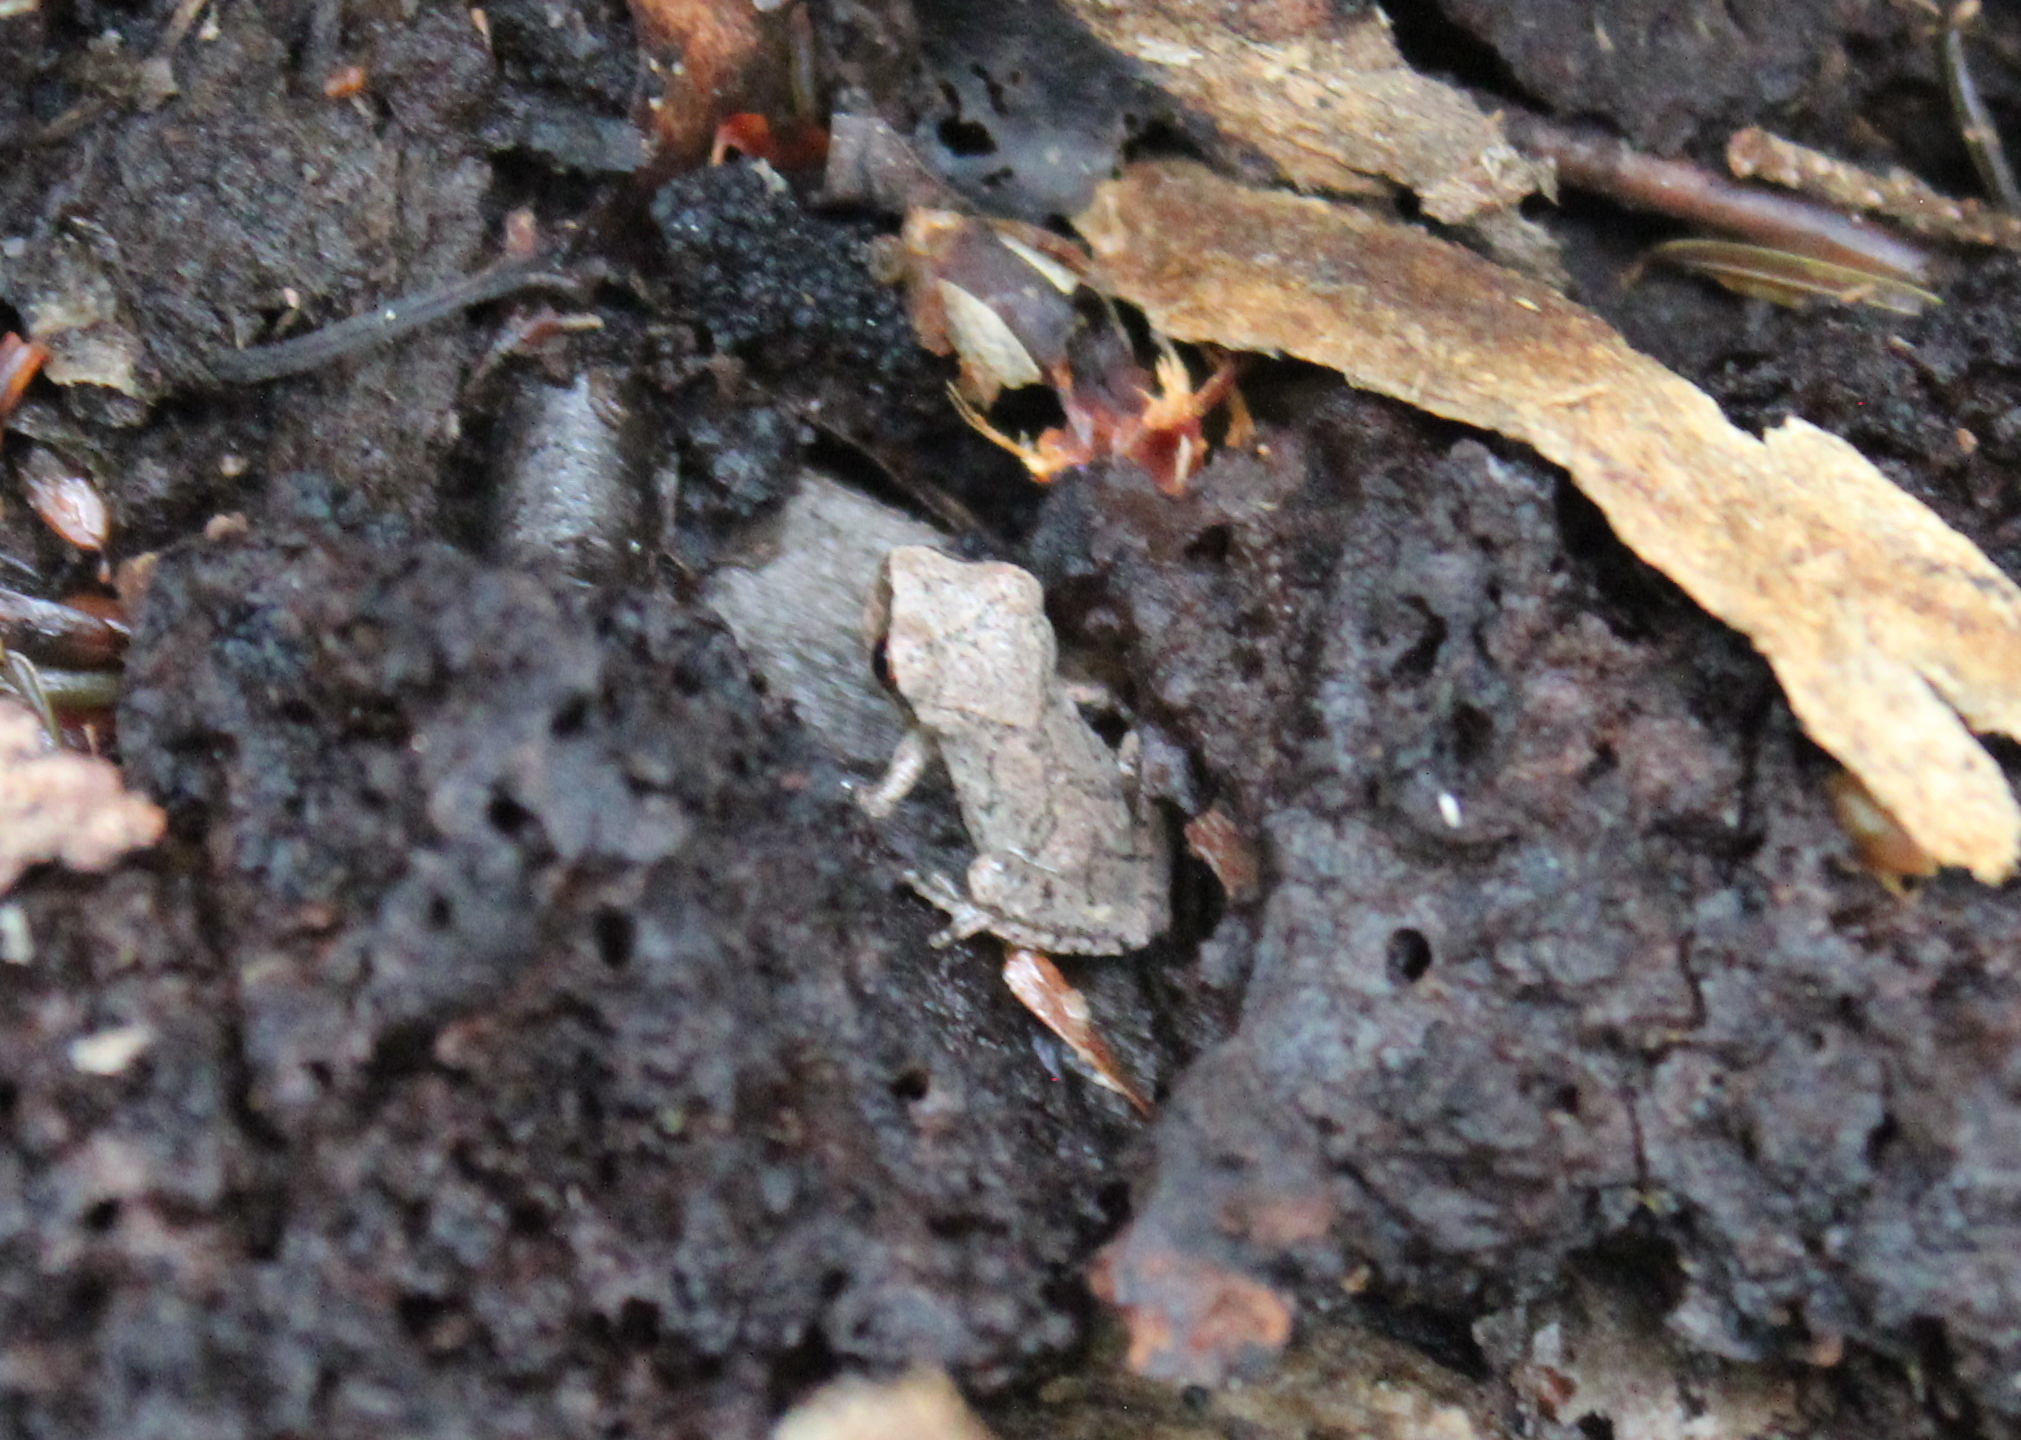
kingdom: Animalia
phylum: Chordata
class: Amphibia
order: Anura
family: Hylidae
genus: Pseudacris
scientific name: Pseudacris crucifer
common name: Spring peeper
